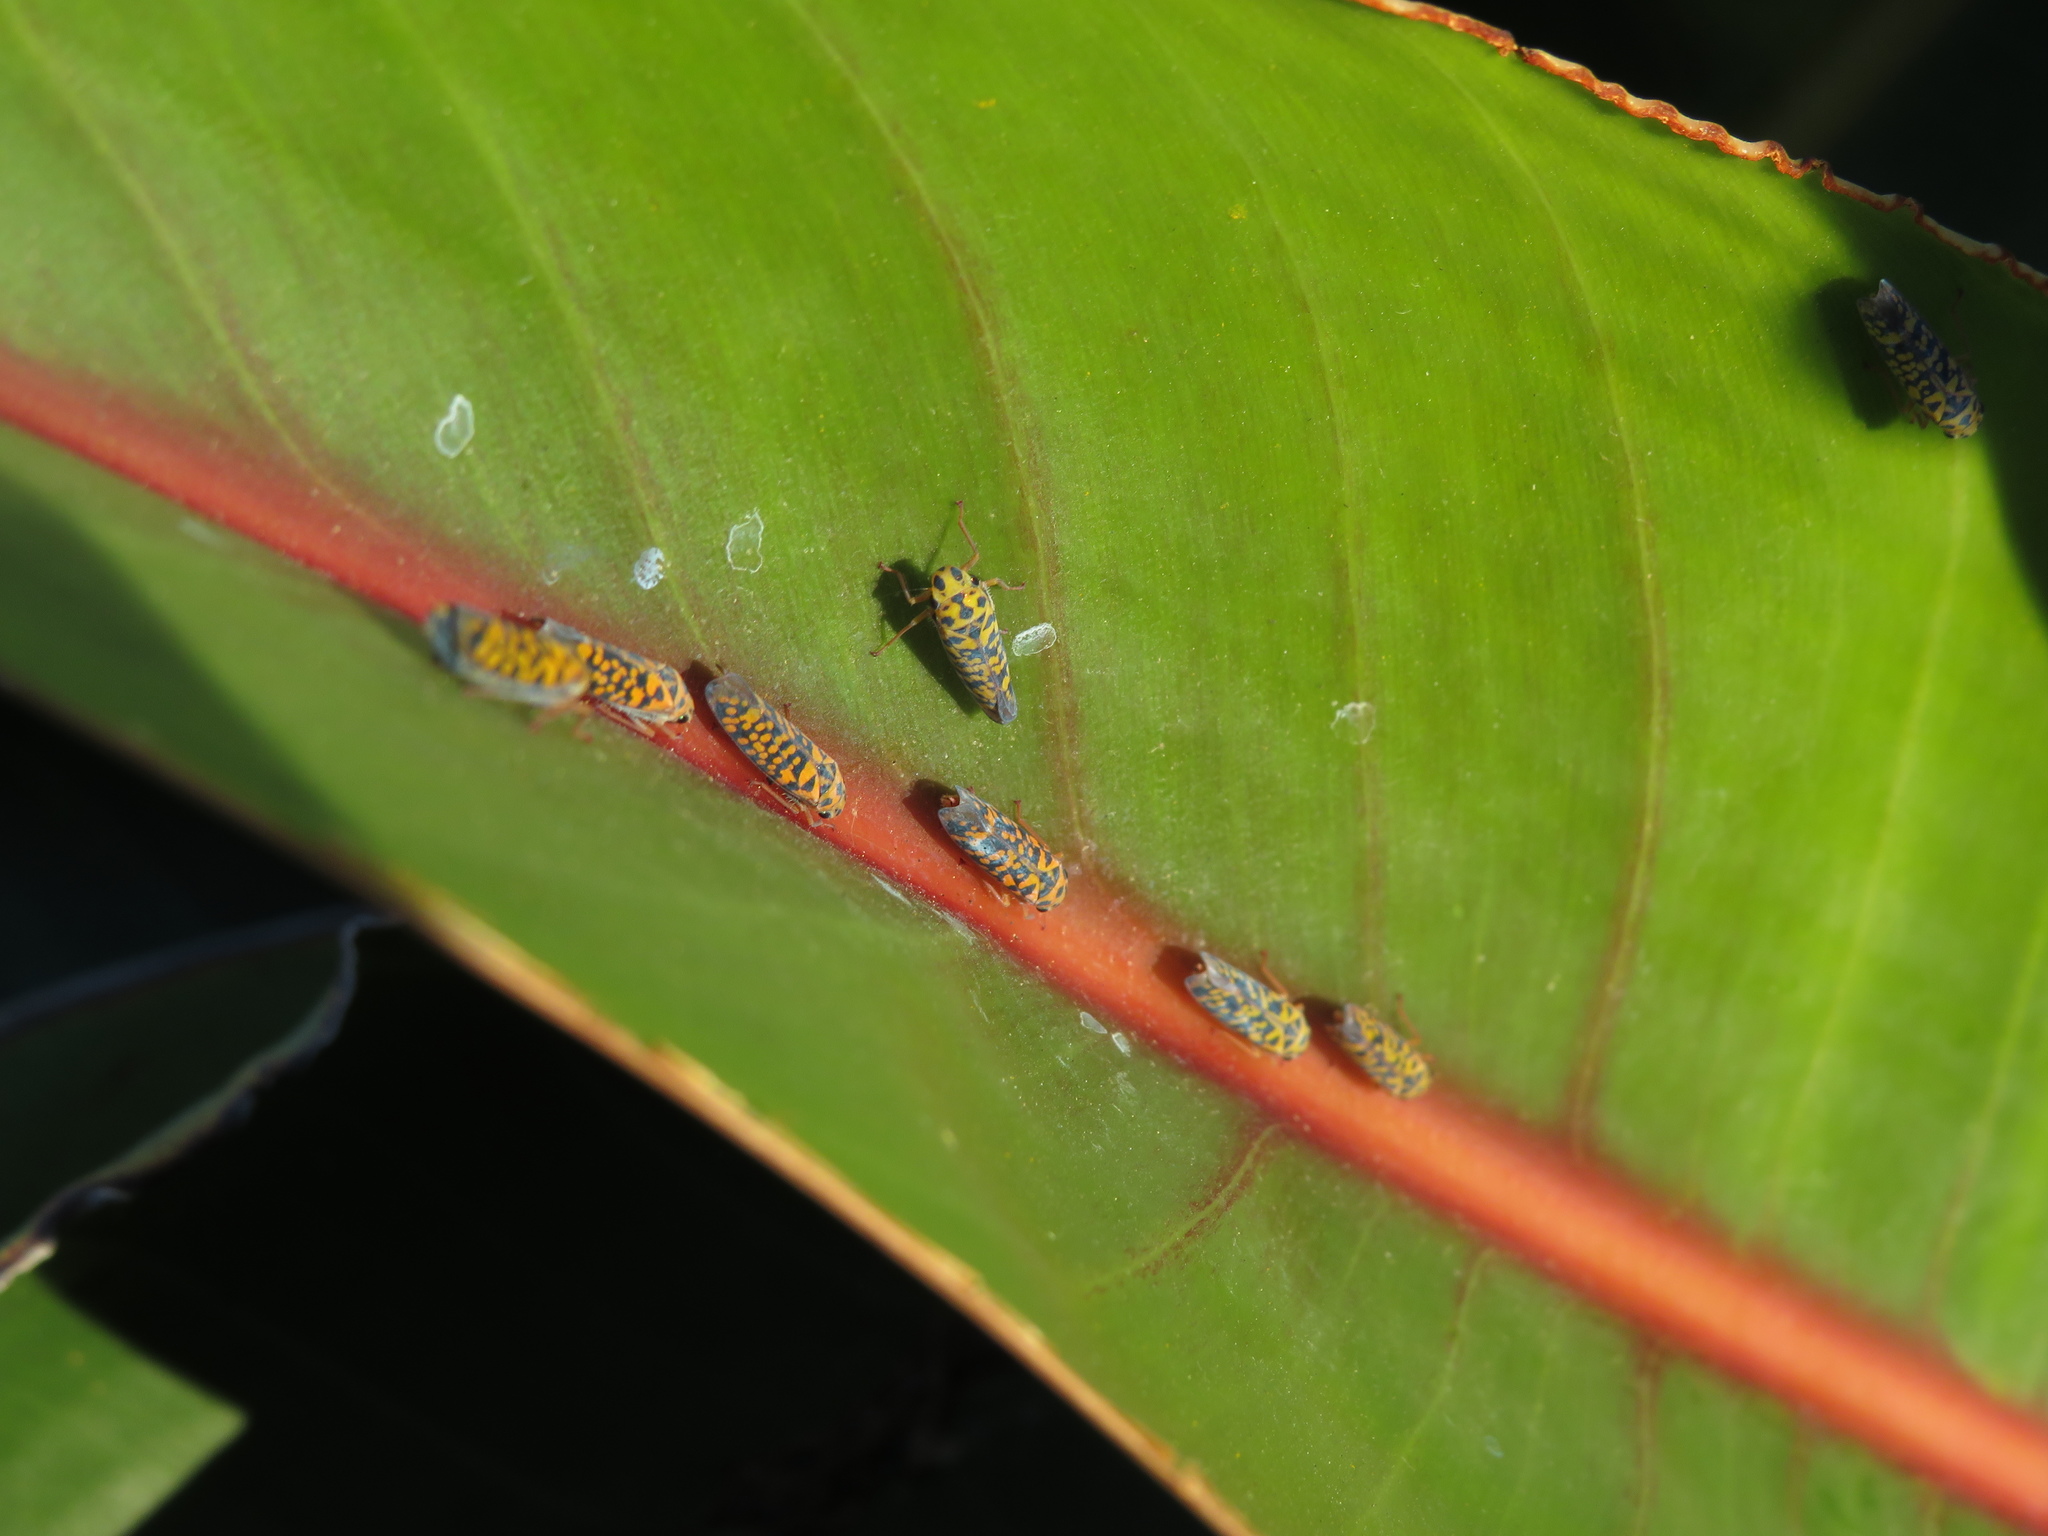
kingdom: Animalia
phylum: Arthropoda
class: Insecta
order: Hemiptera
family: Cicadellidae
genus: Pawiloma
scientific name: Pawiloma victima
